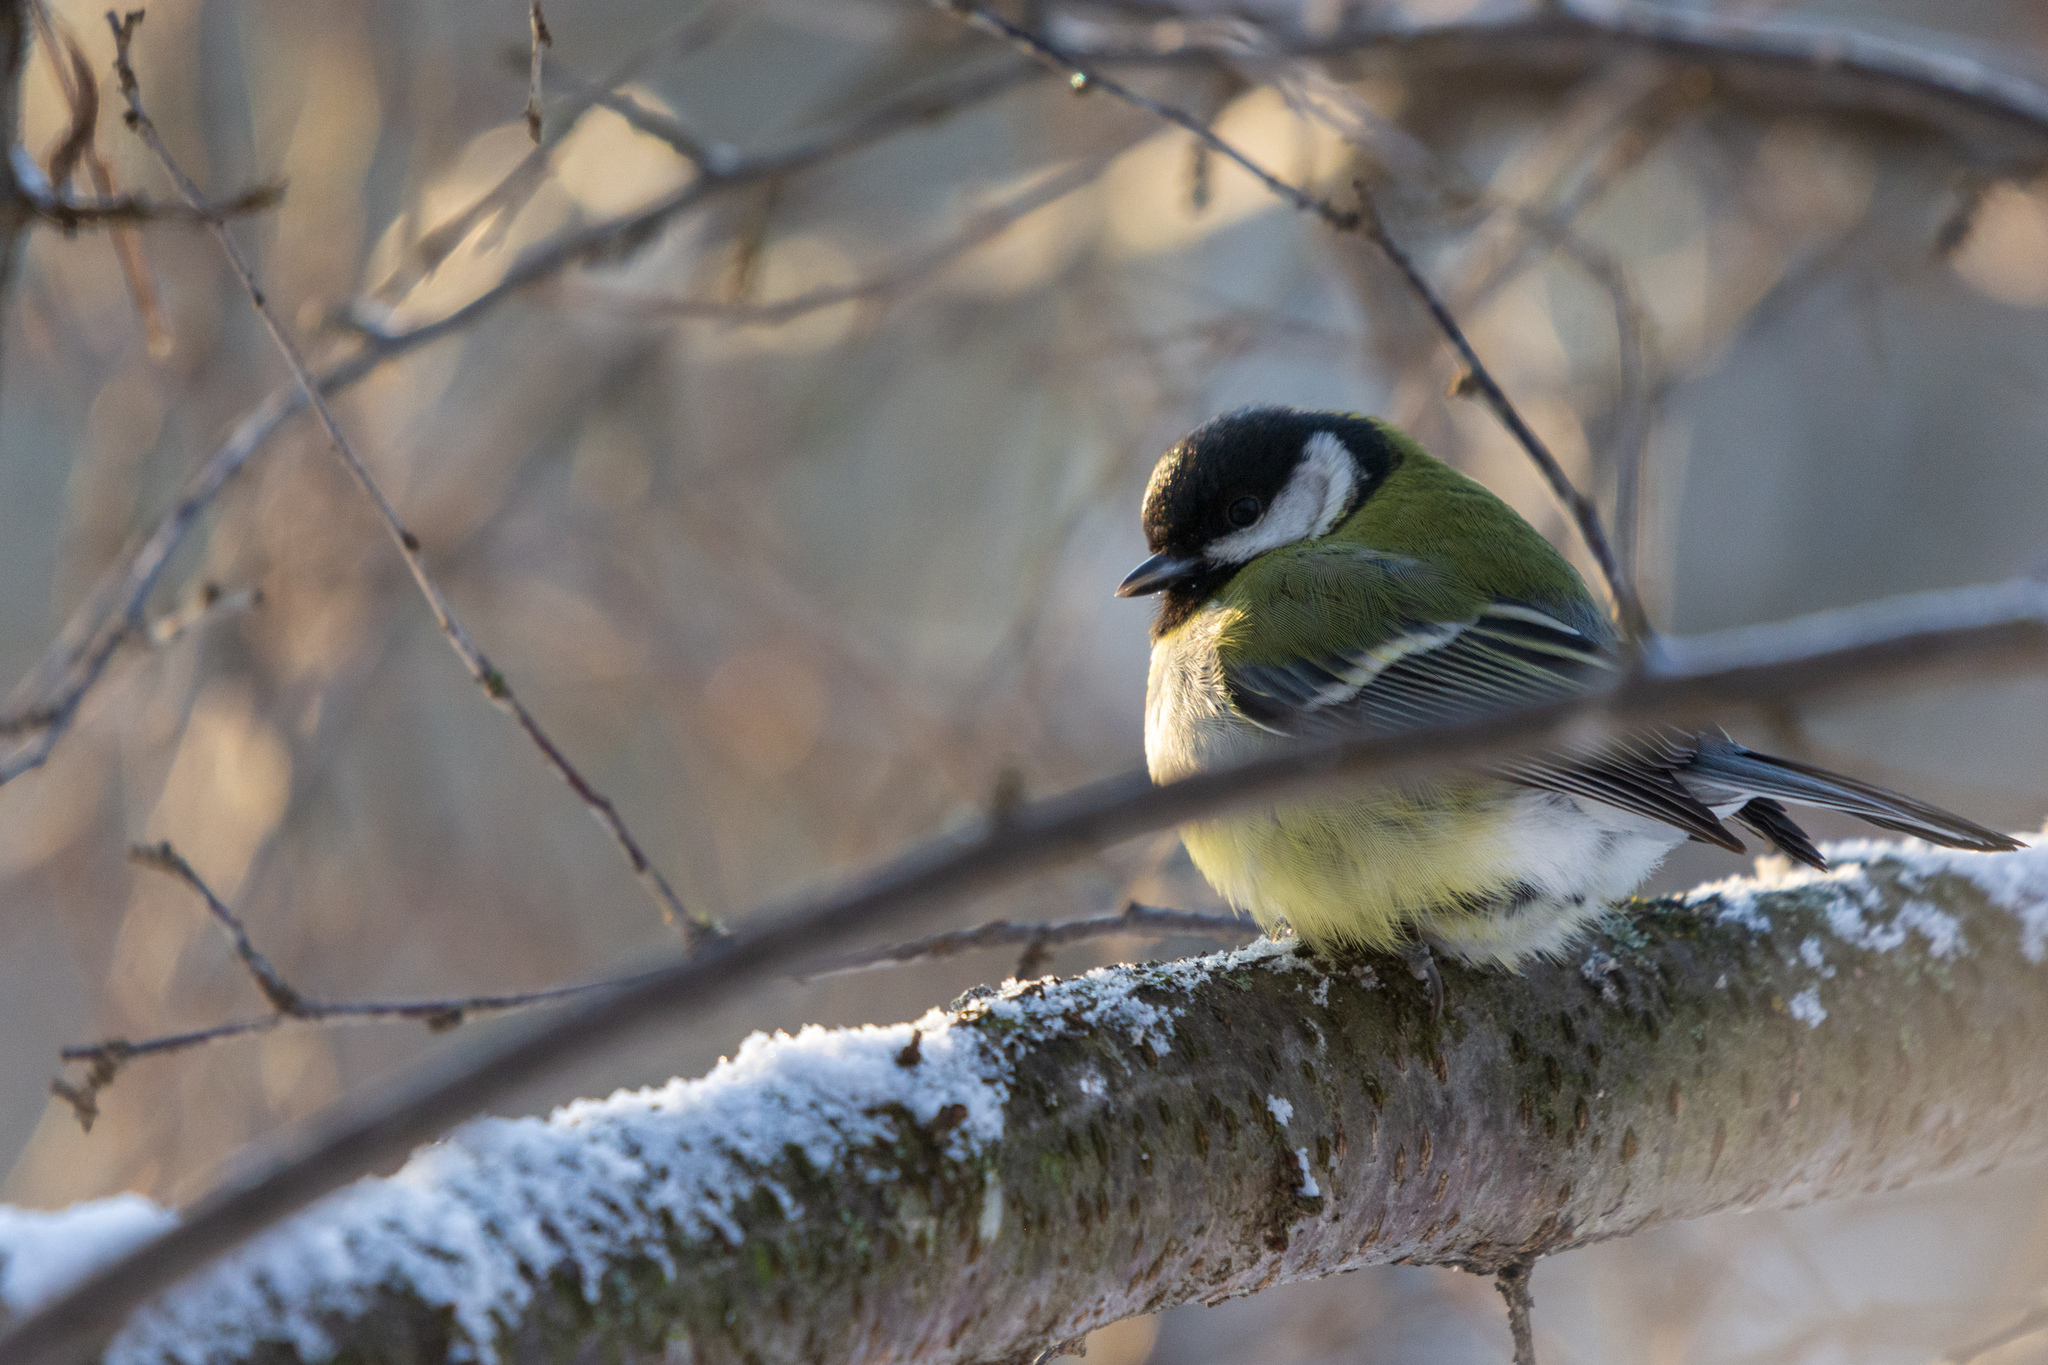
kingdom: Animalia
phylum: Chordata
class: Aves
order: Passeriformes
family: Paridae
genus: Parus
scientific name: Parus major
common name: Great tit
